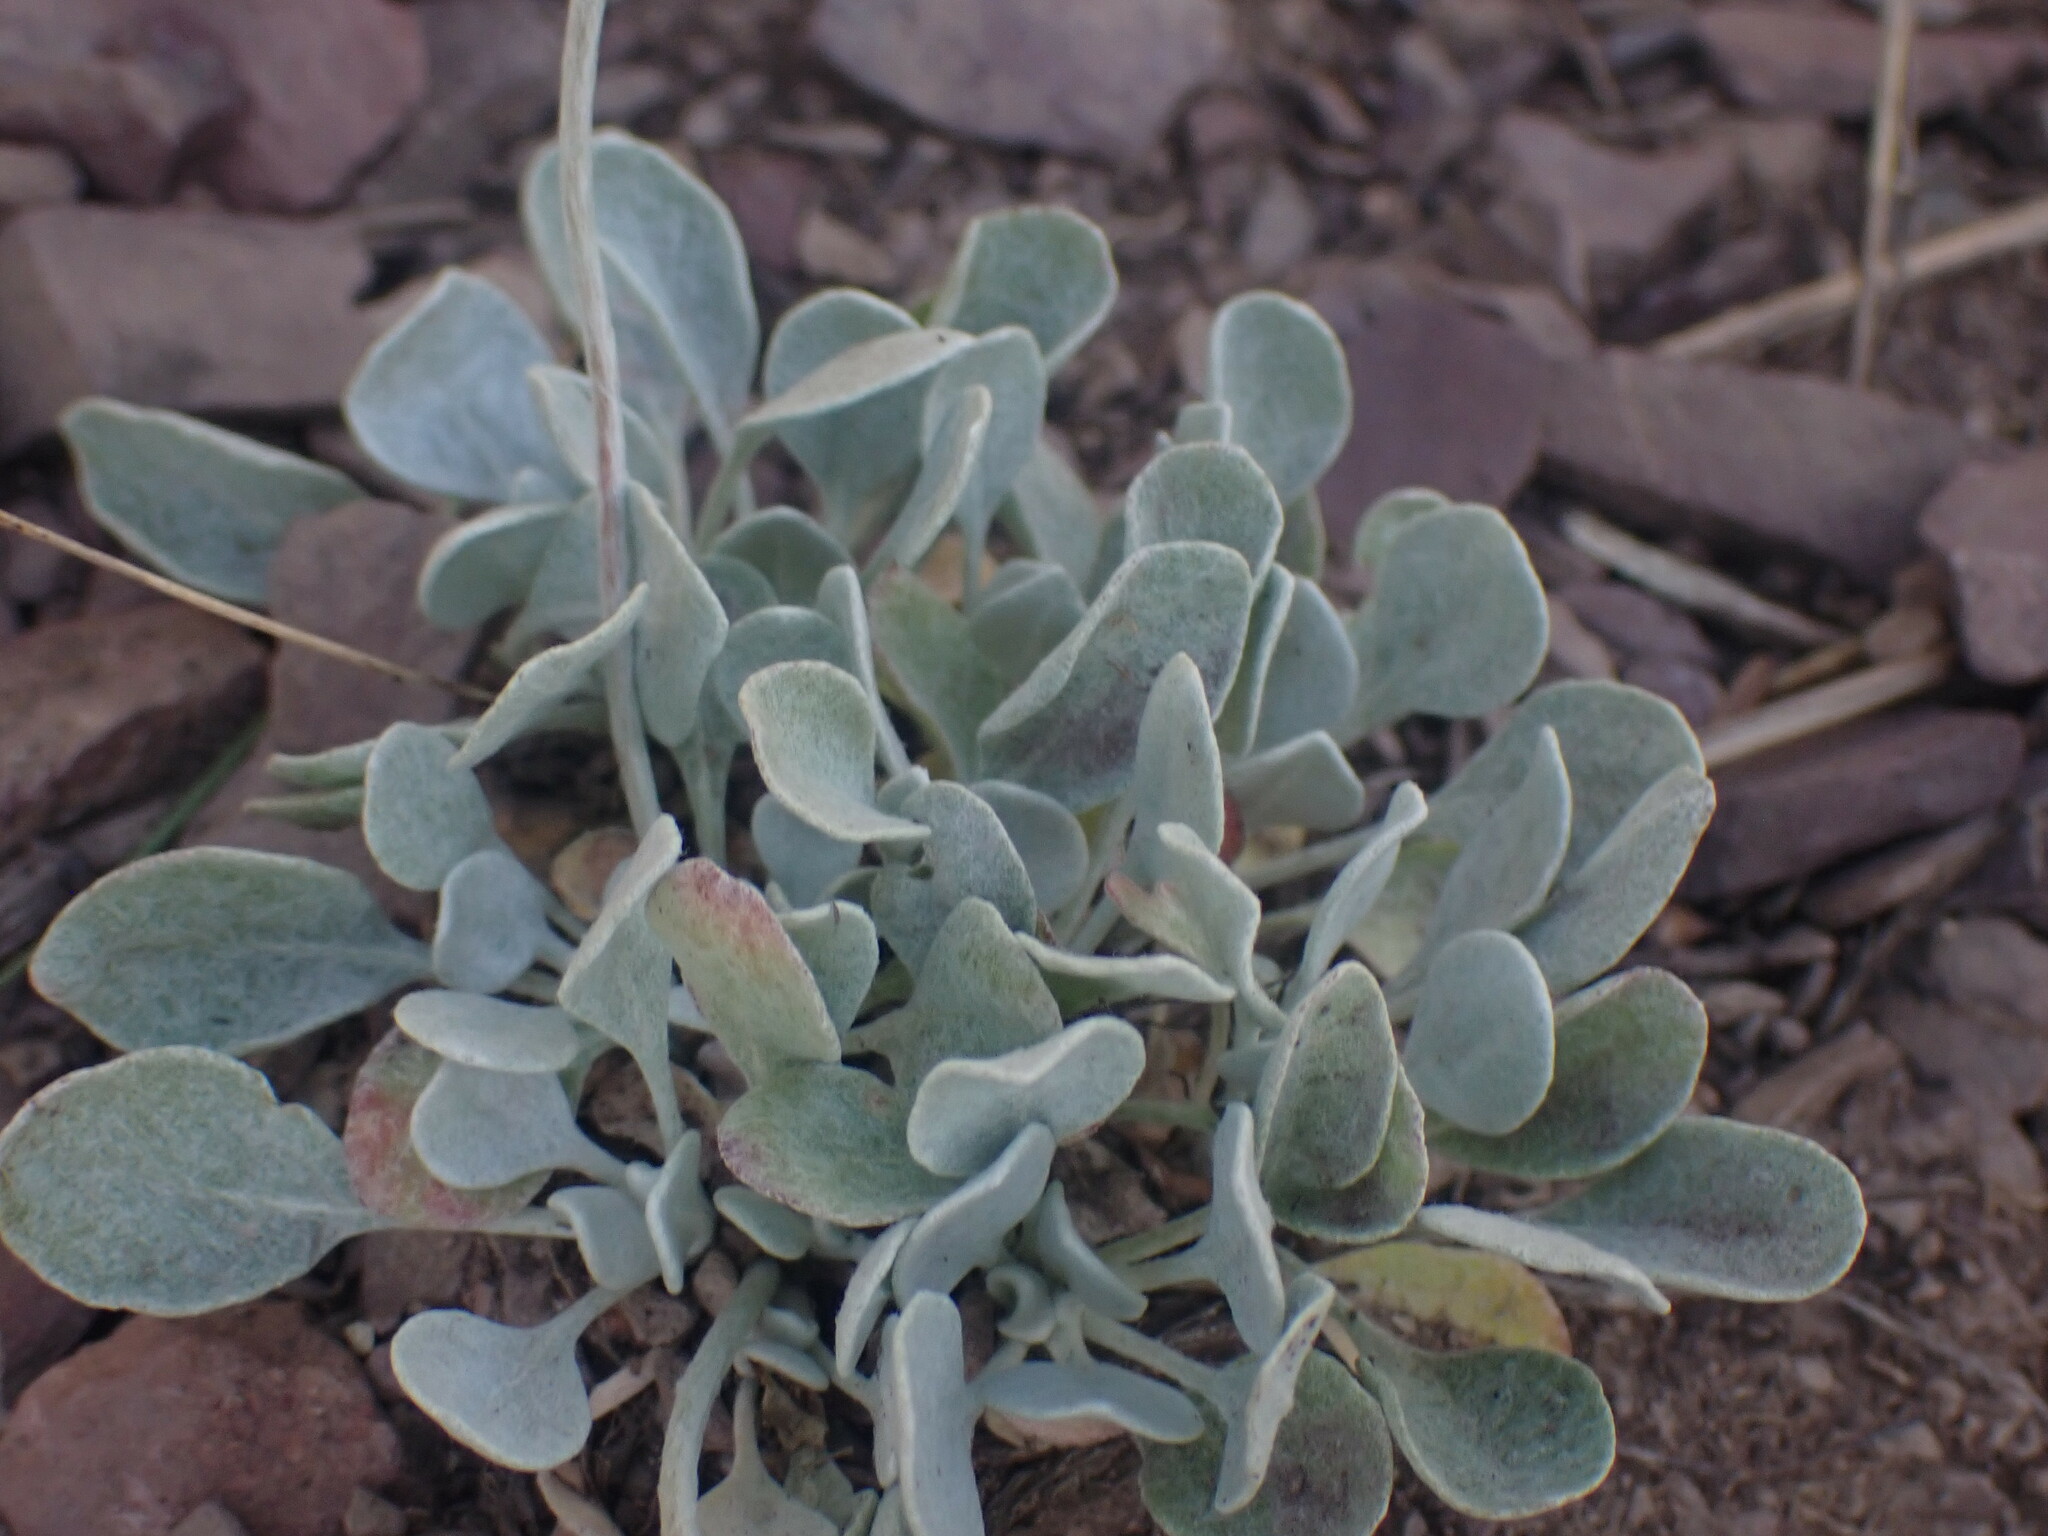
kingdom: Plantae
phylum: Tracheophyta
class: Magnoliopsida
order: Caryophyllales
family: Polygonaceae
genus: Eriogonum
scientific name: Eriogonum ovalifolium
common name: Cushion buckwheat
